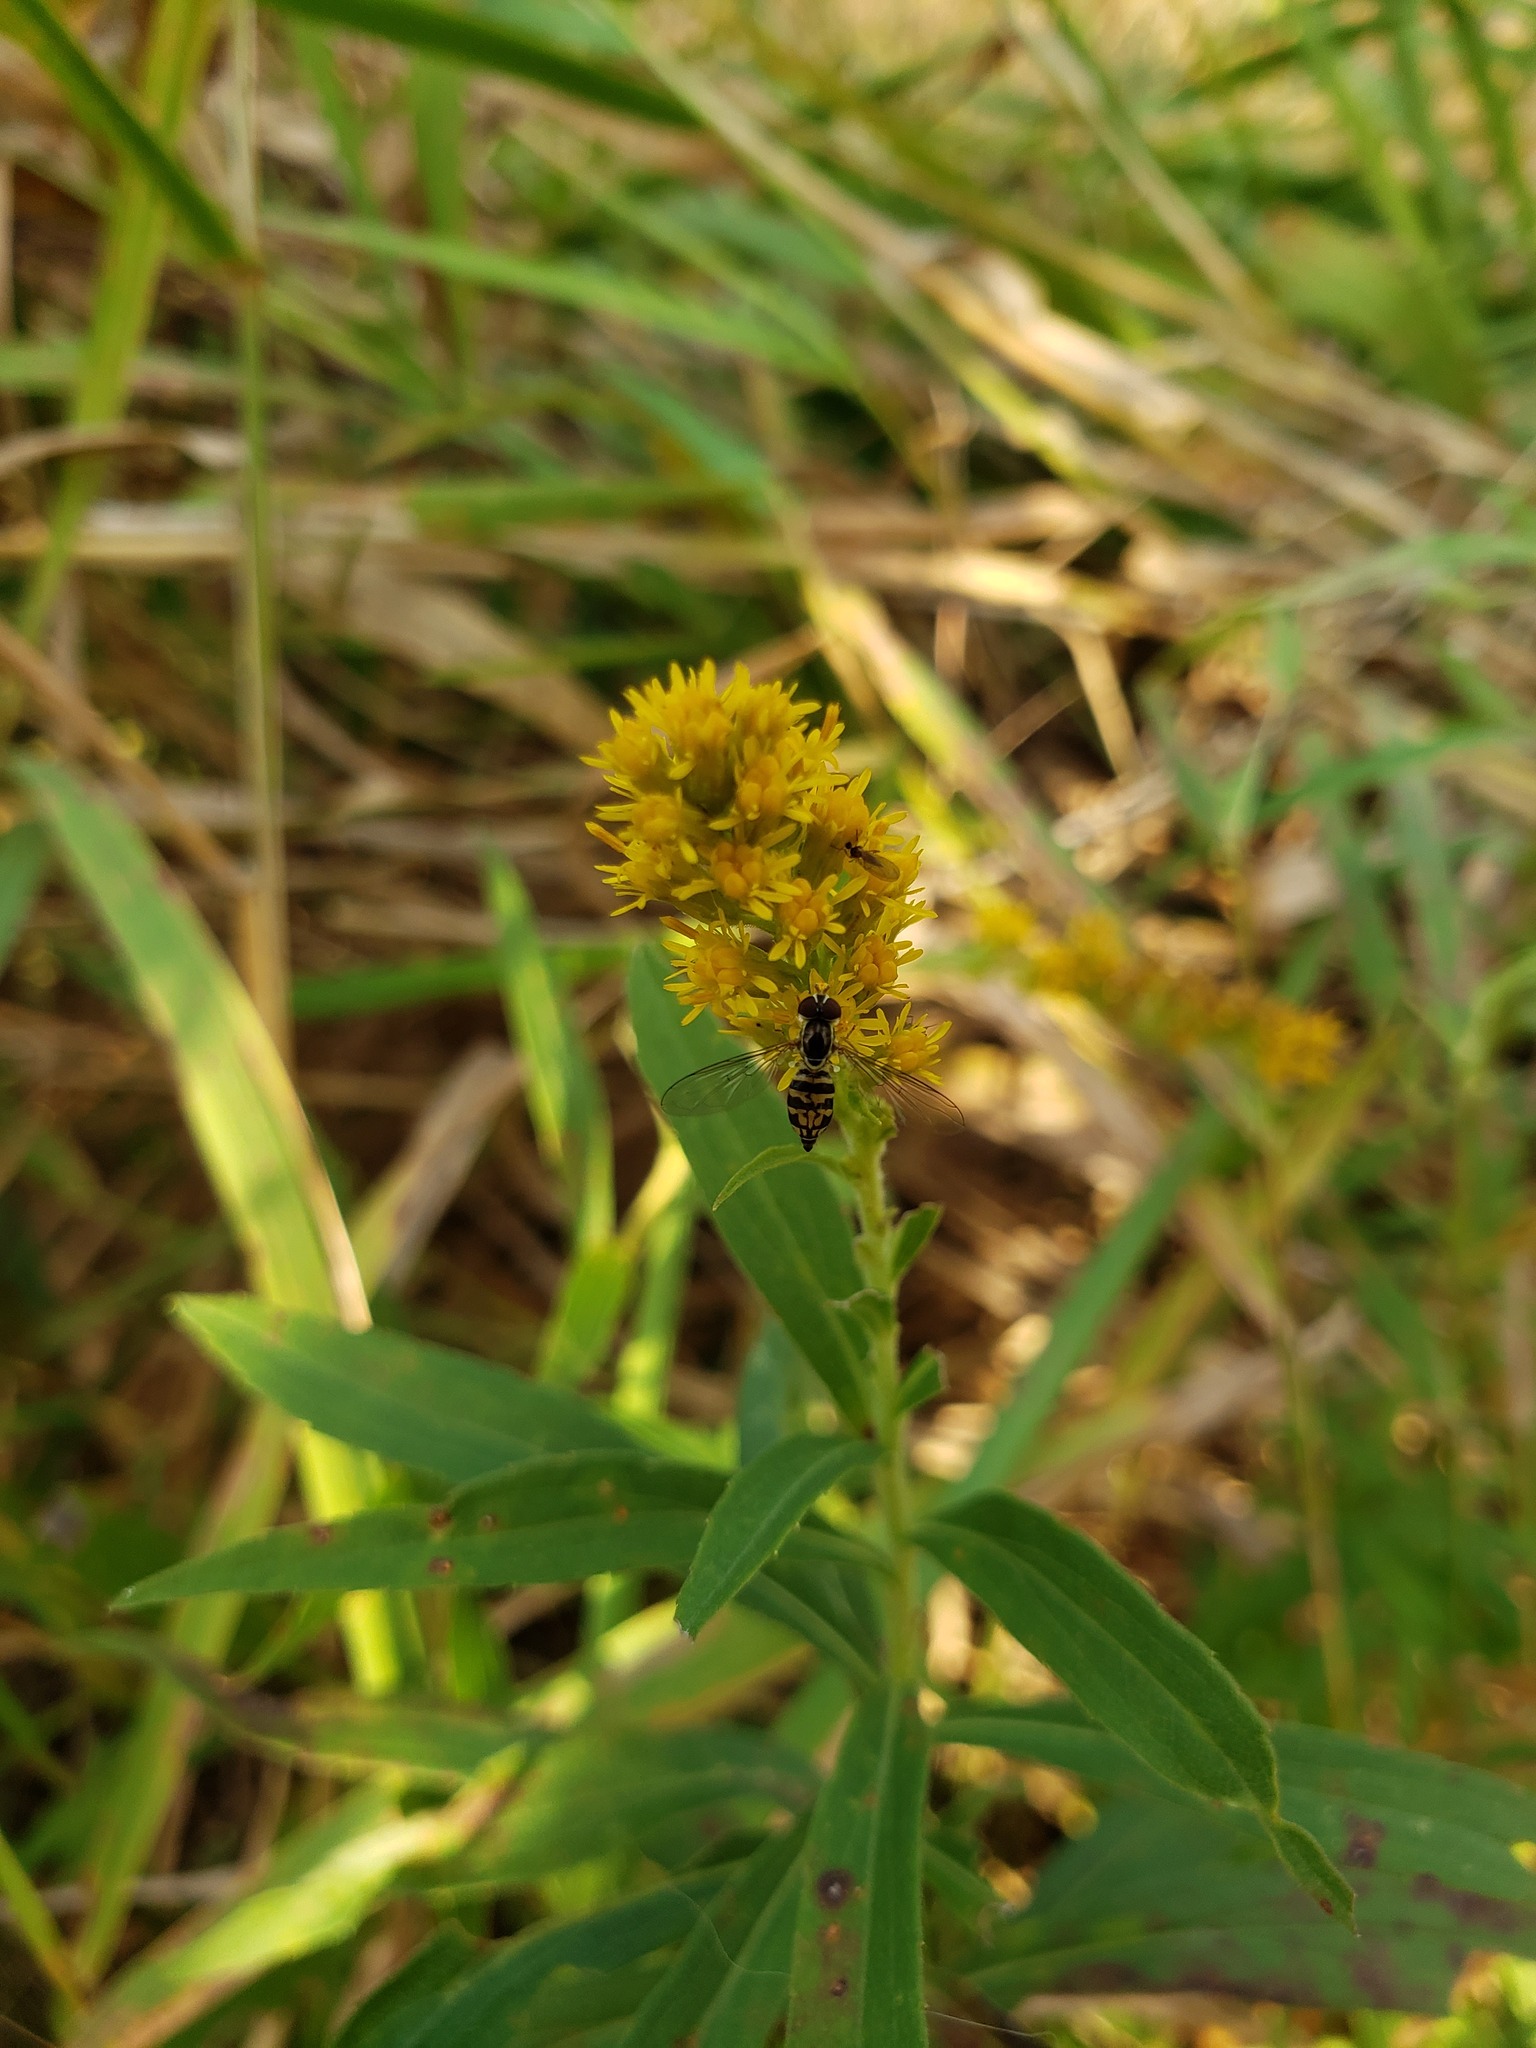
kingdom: Animalia
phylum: Arthropoda
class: Insecta
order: Diptera
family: Syrphidae
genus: Toxomerus
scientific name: Toxomerus geminatus
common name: Eastern calligrapher
